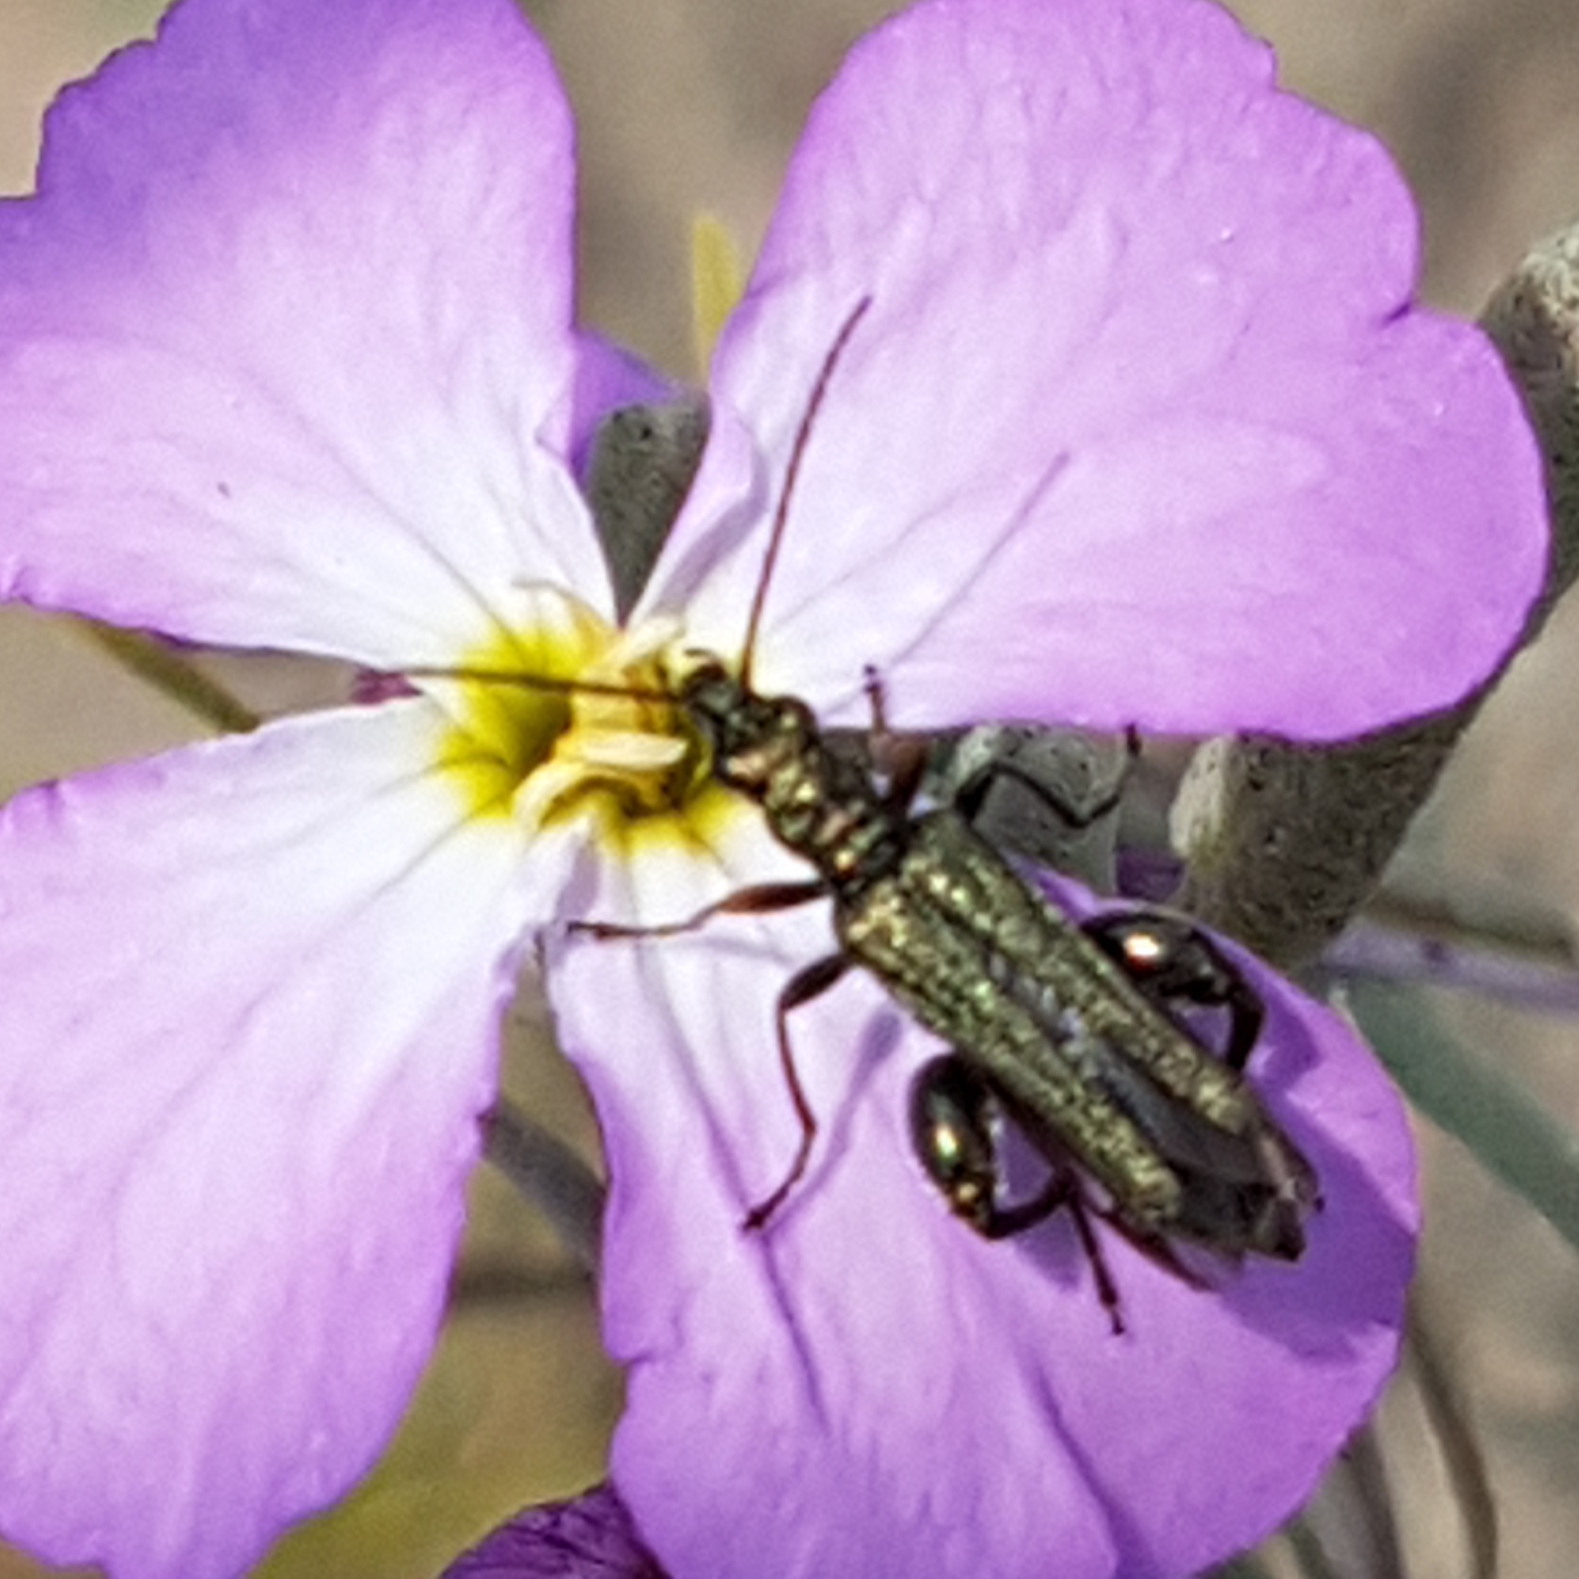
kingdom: Animalia
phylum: Arthropoda
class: Insecta
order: Coleoptera
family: Oedemeridae
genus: Oedemera
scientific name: Oedemera flavipes
